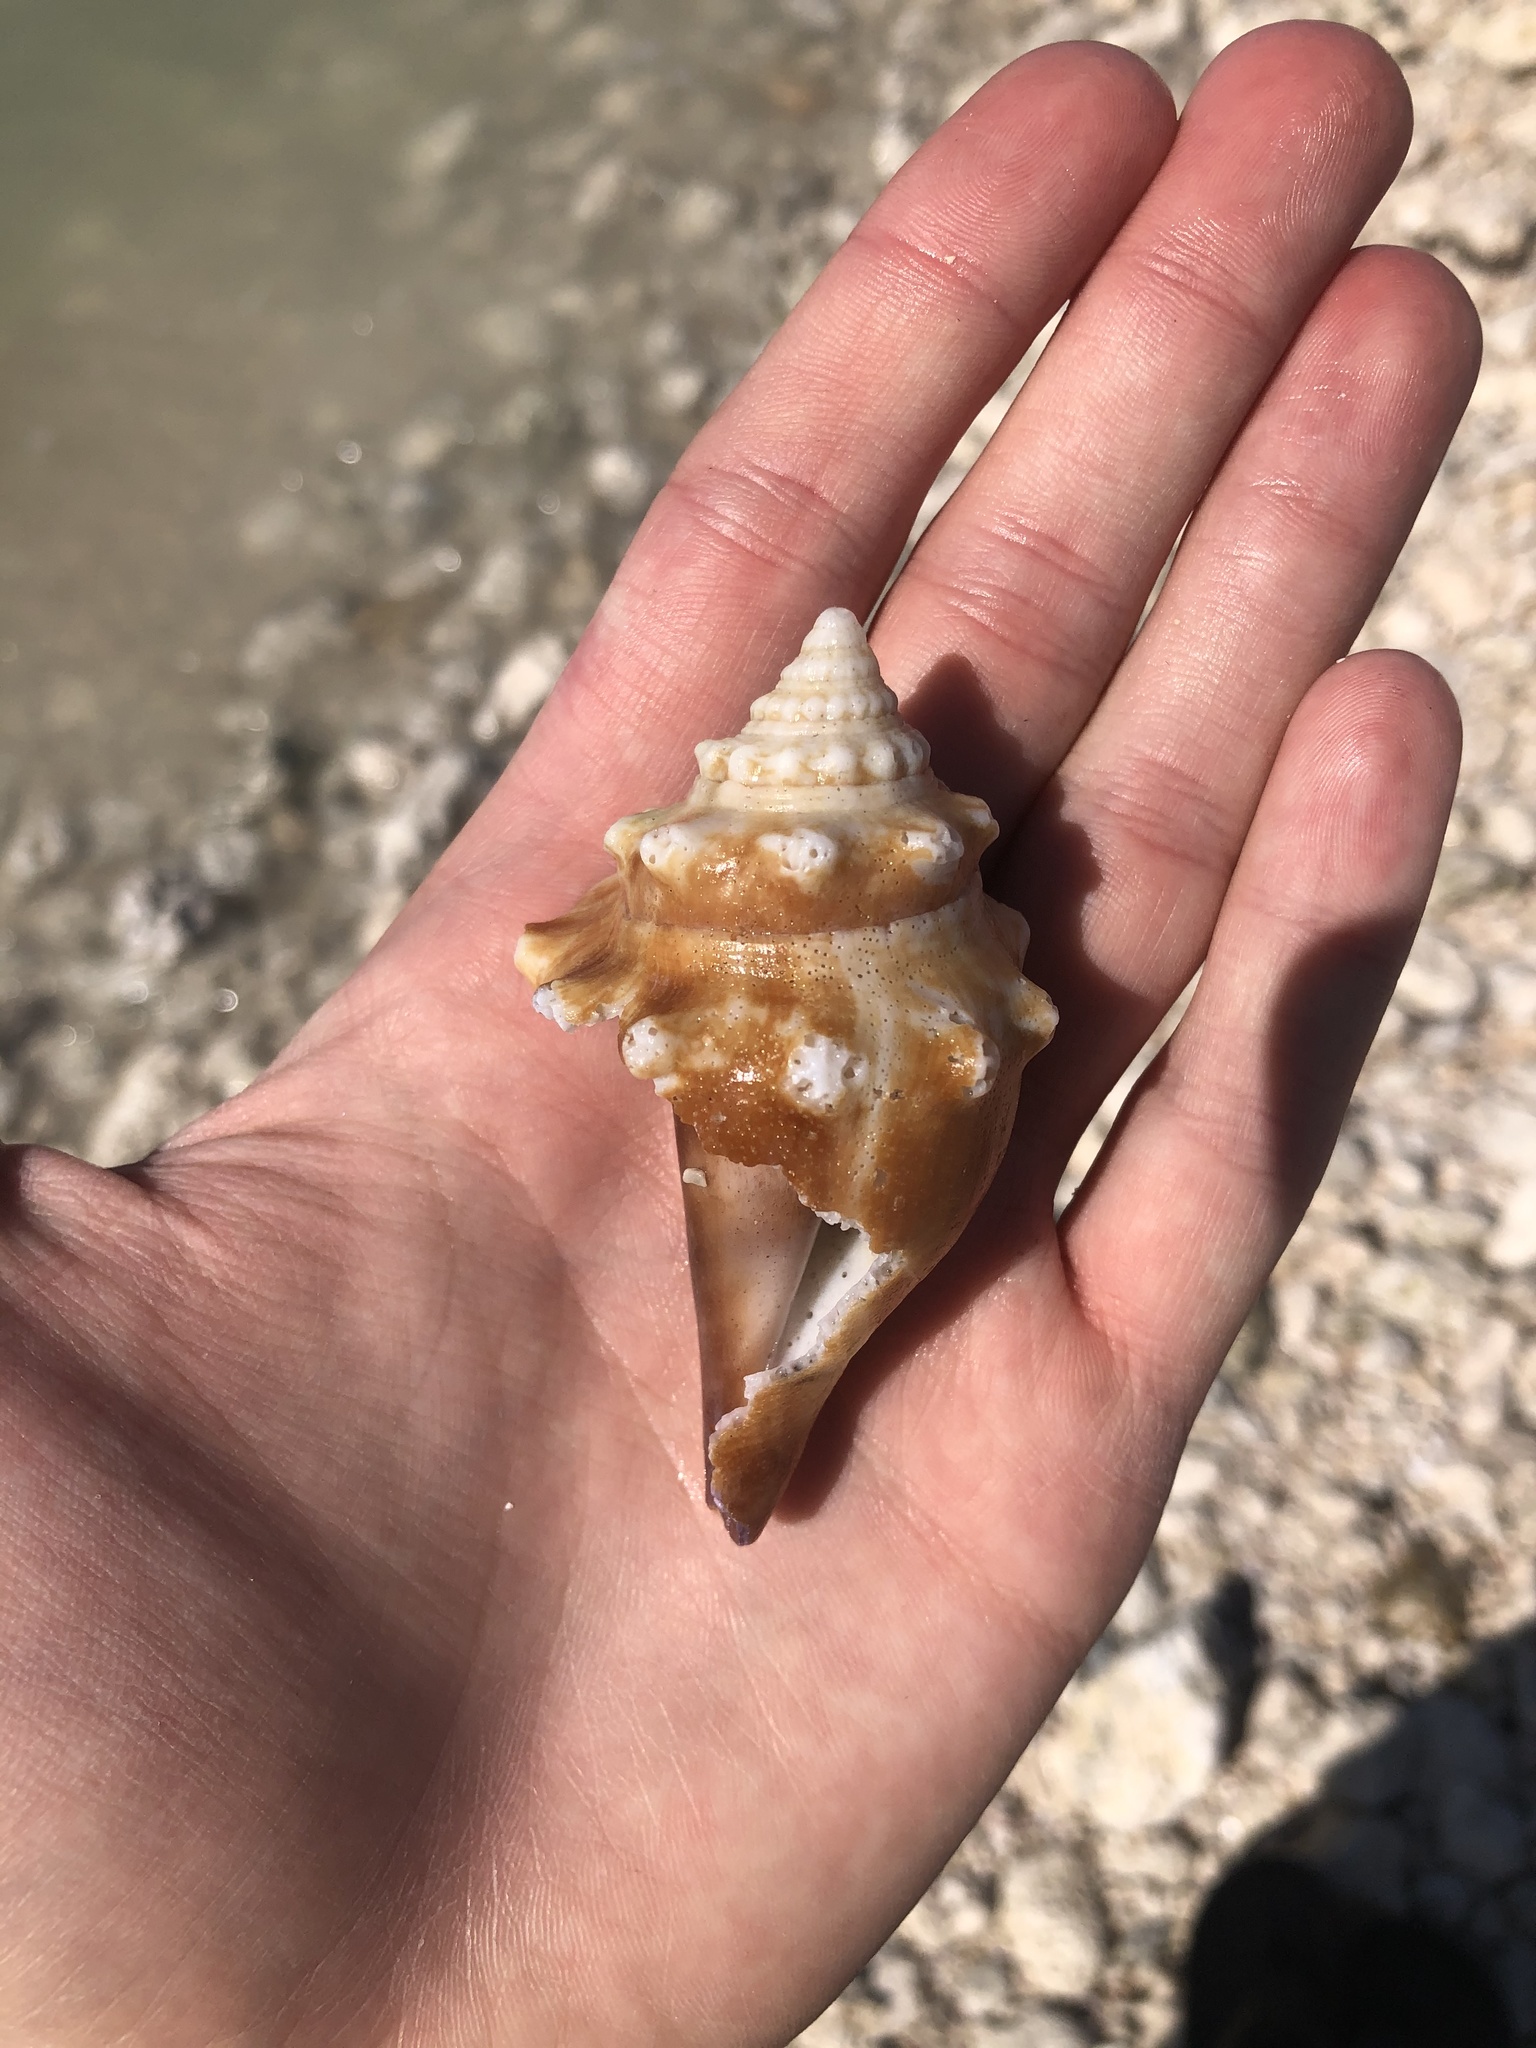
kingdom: Animalia
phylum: Mollusca
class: Gastropoda
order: Littorinimorpha
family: Strombidae
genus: Strombus
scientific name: Strombus alatus
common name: Florida fighting conch
